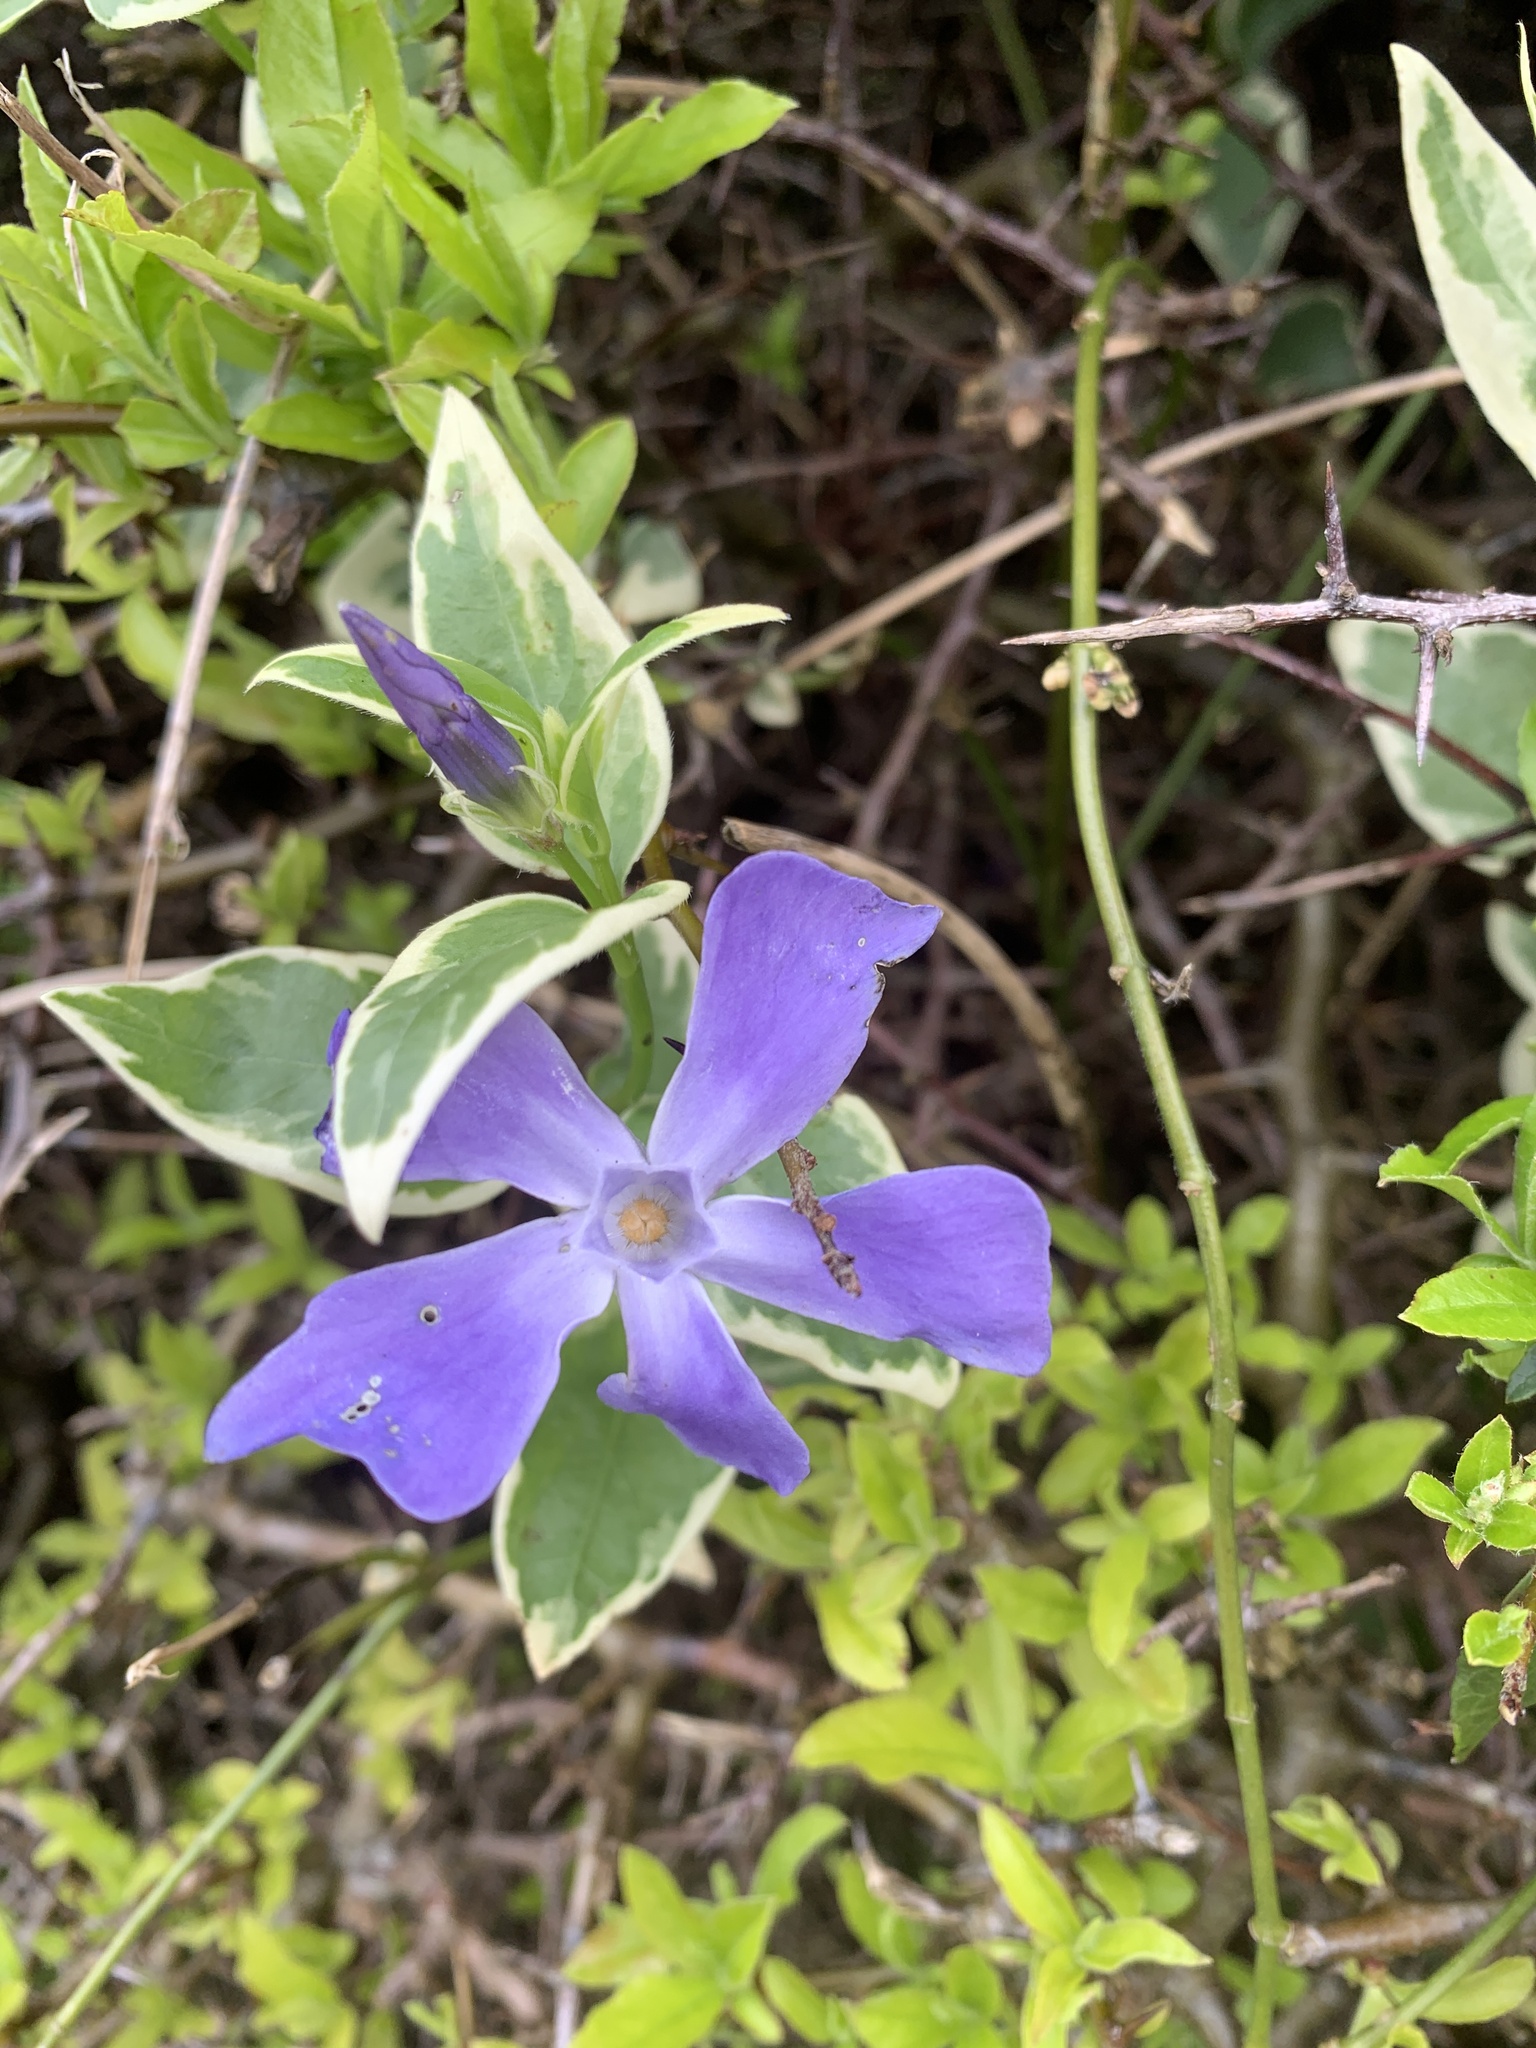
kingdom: Plantae
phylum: Tracheophyta
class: Magnoliopsida
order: Gentianales
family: Apocynaceae
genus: Vinca
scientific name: Vinca major
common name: Greater periwinkle
